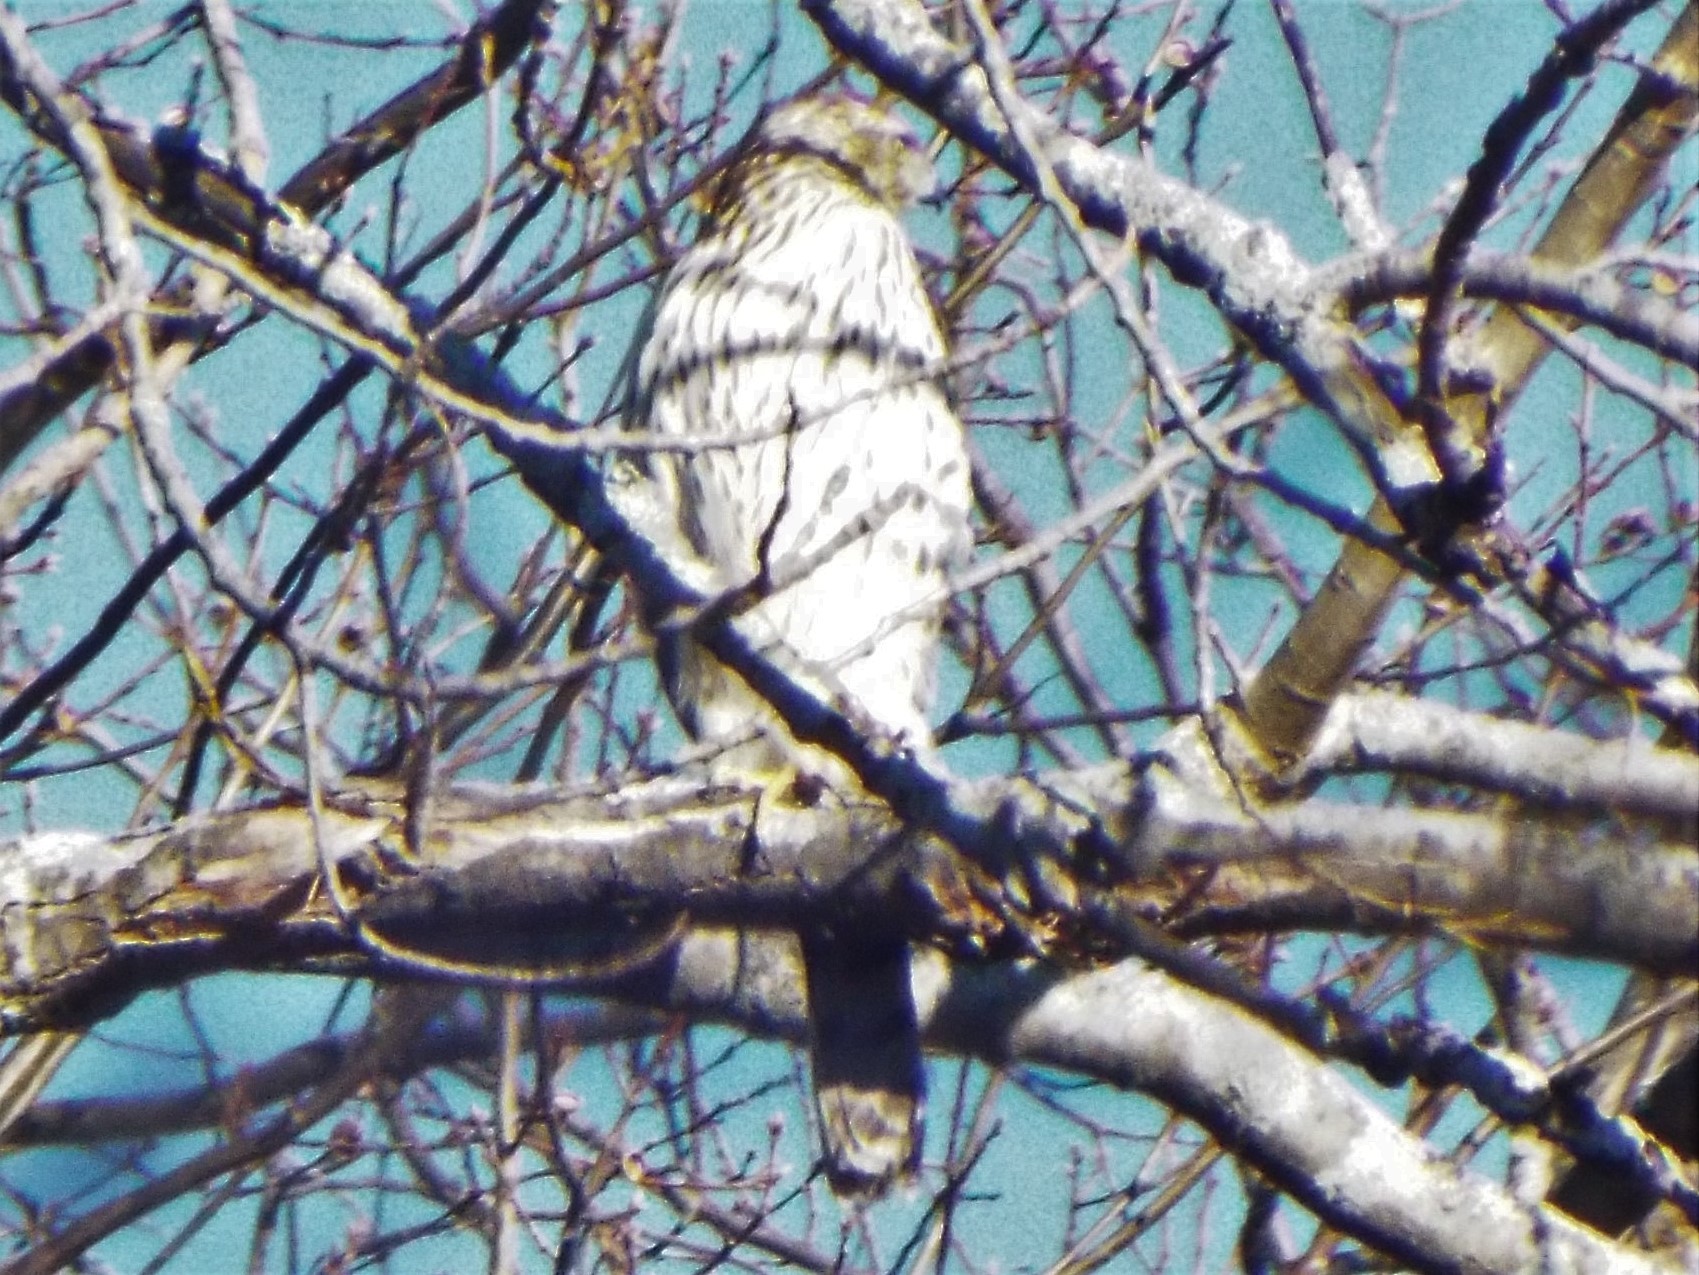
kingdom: Animalia
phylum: Chordata
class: Aves
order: Accipitriformes
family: Accipitridae
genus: Accipiter
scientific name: Accipiter cooperii
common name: Cooper's hawk
